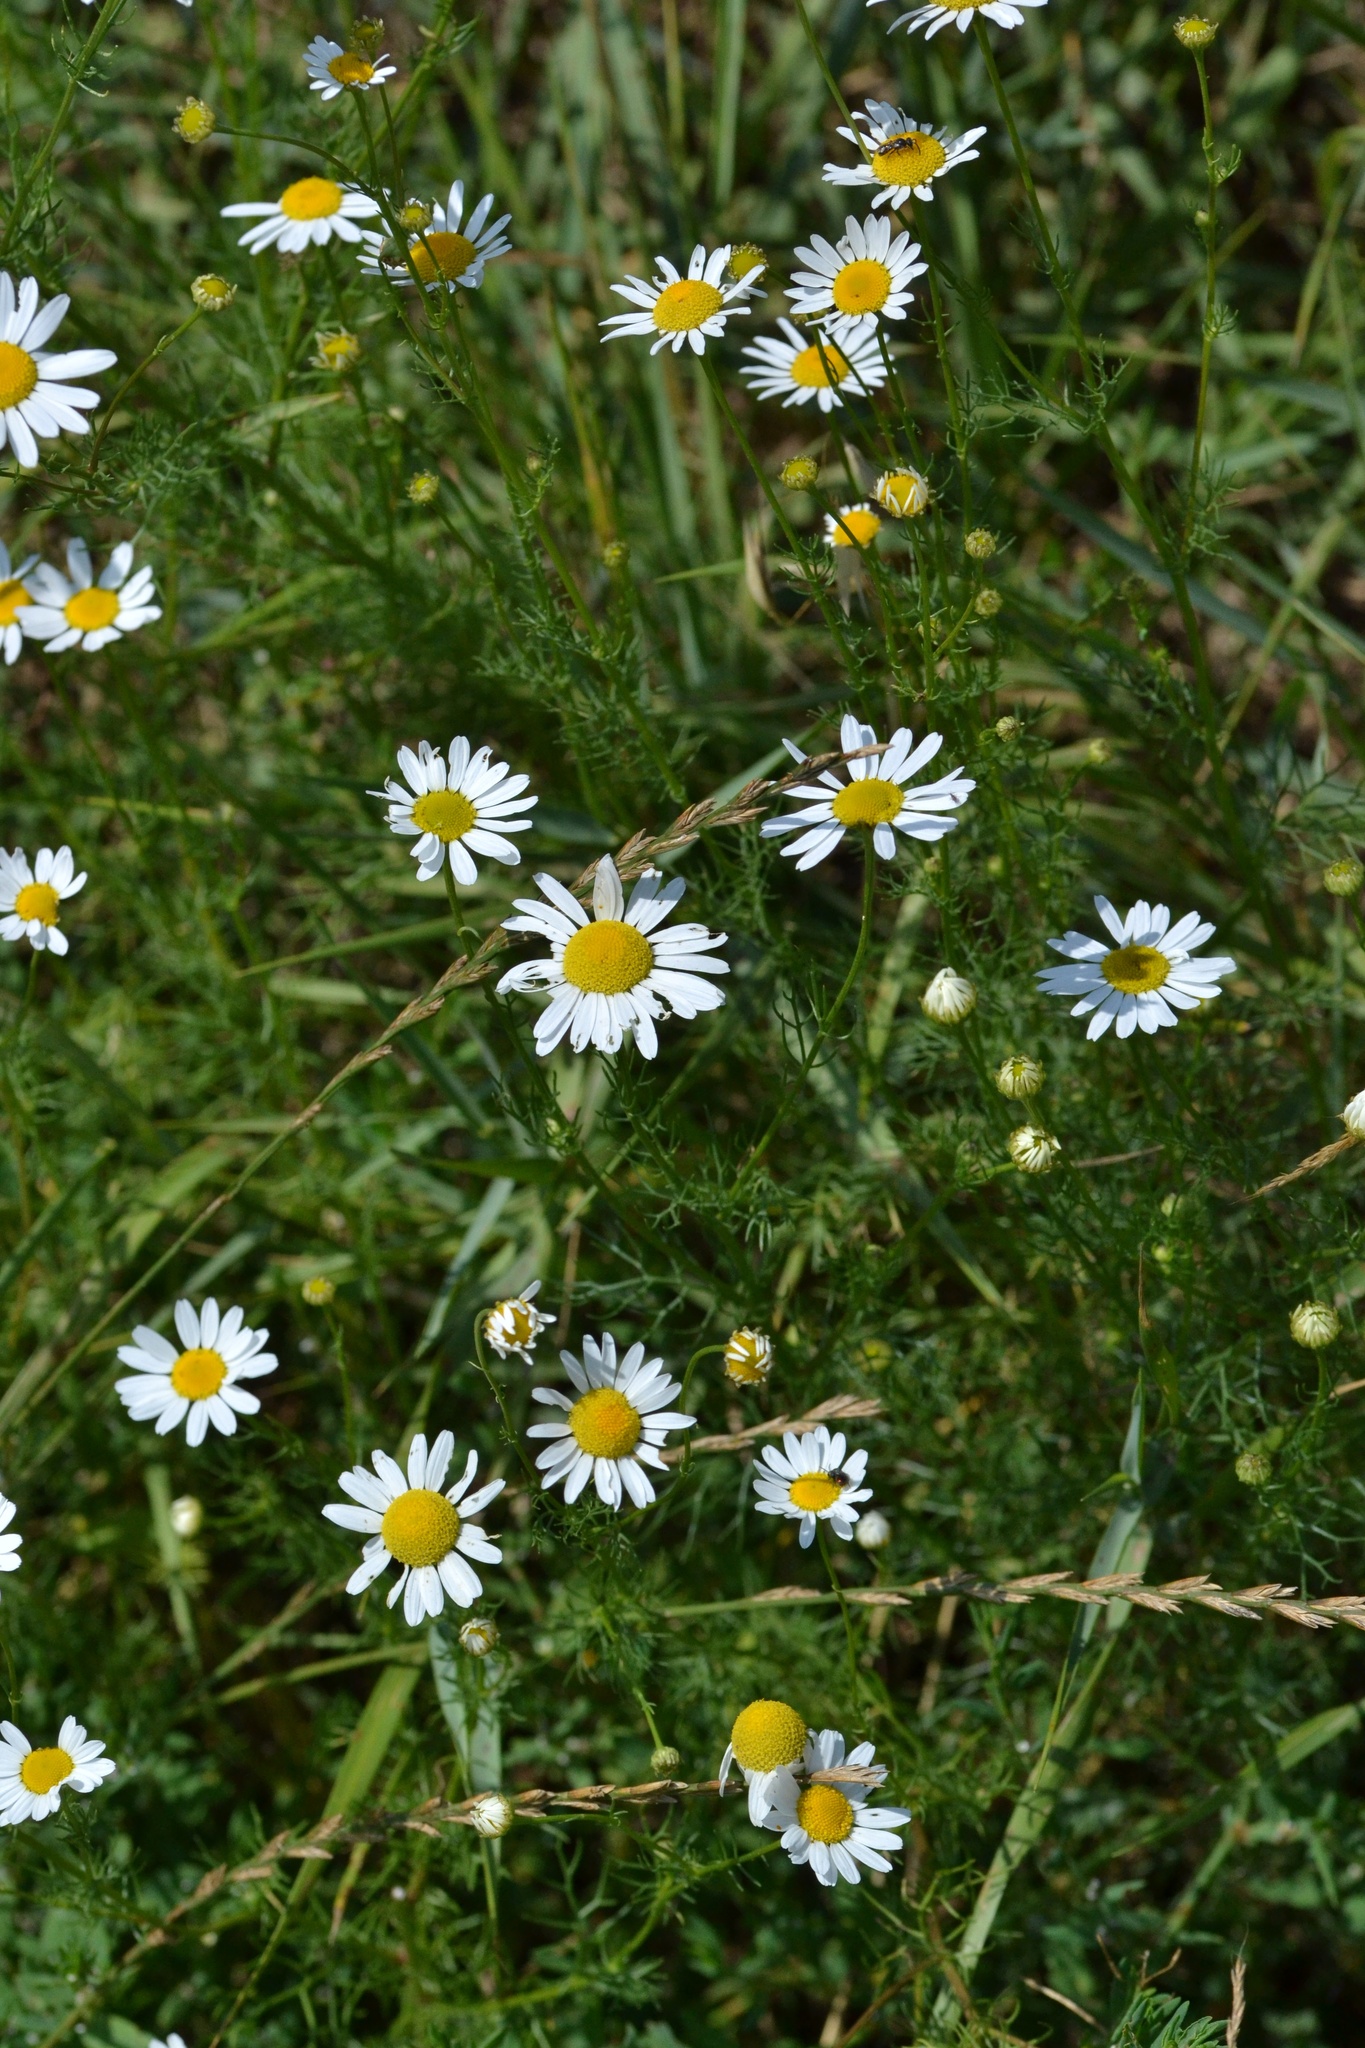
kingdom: Plantae
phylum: Tracheophyta
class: Magnoliopsida
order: Asterales
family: Asteraceae
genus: Tripleurospermum
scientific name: Tripleurospermum inodorum
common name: Scentless mayweed
